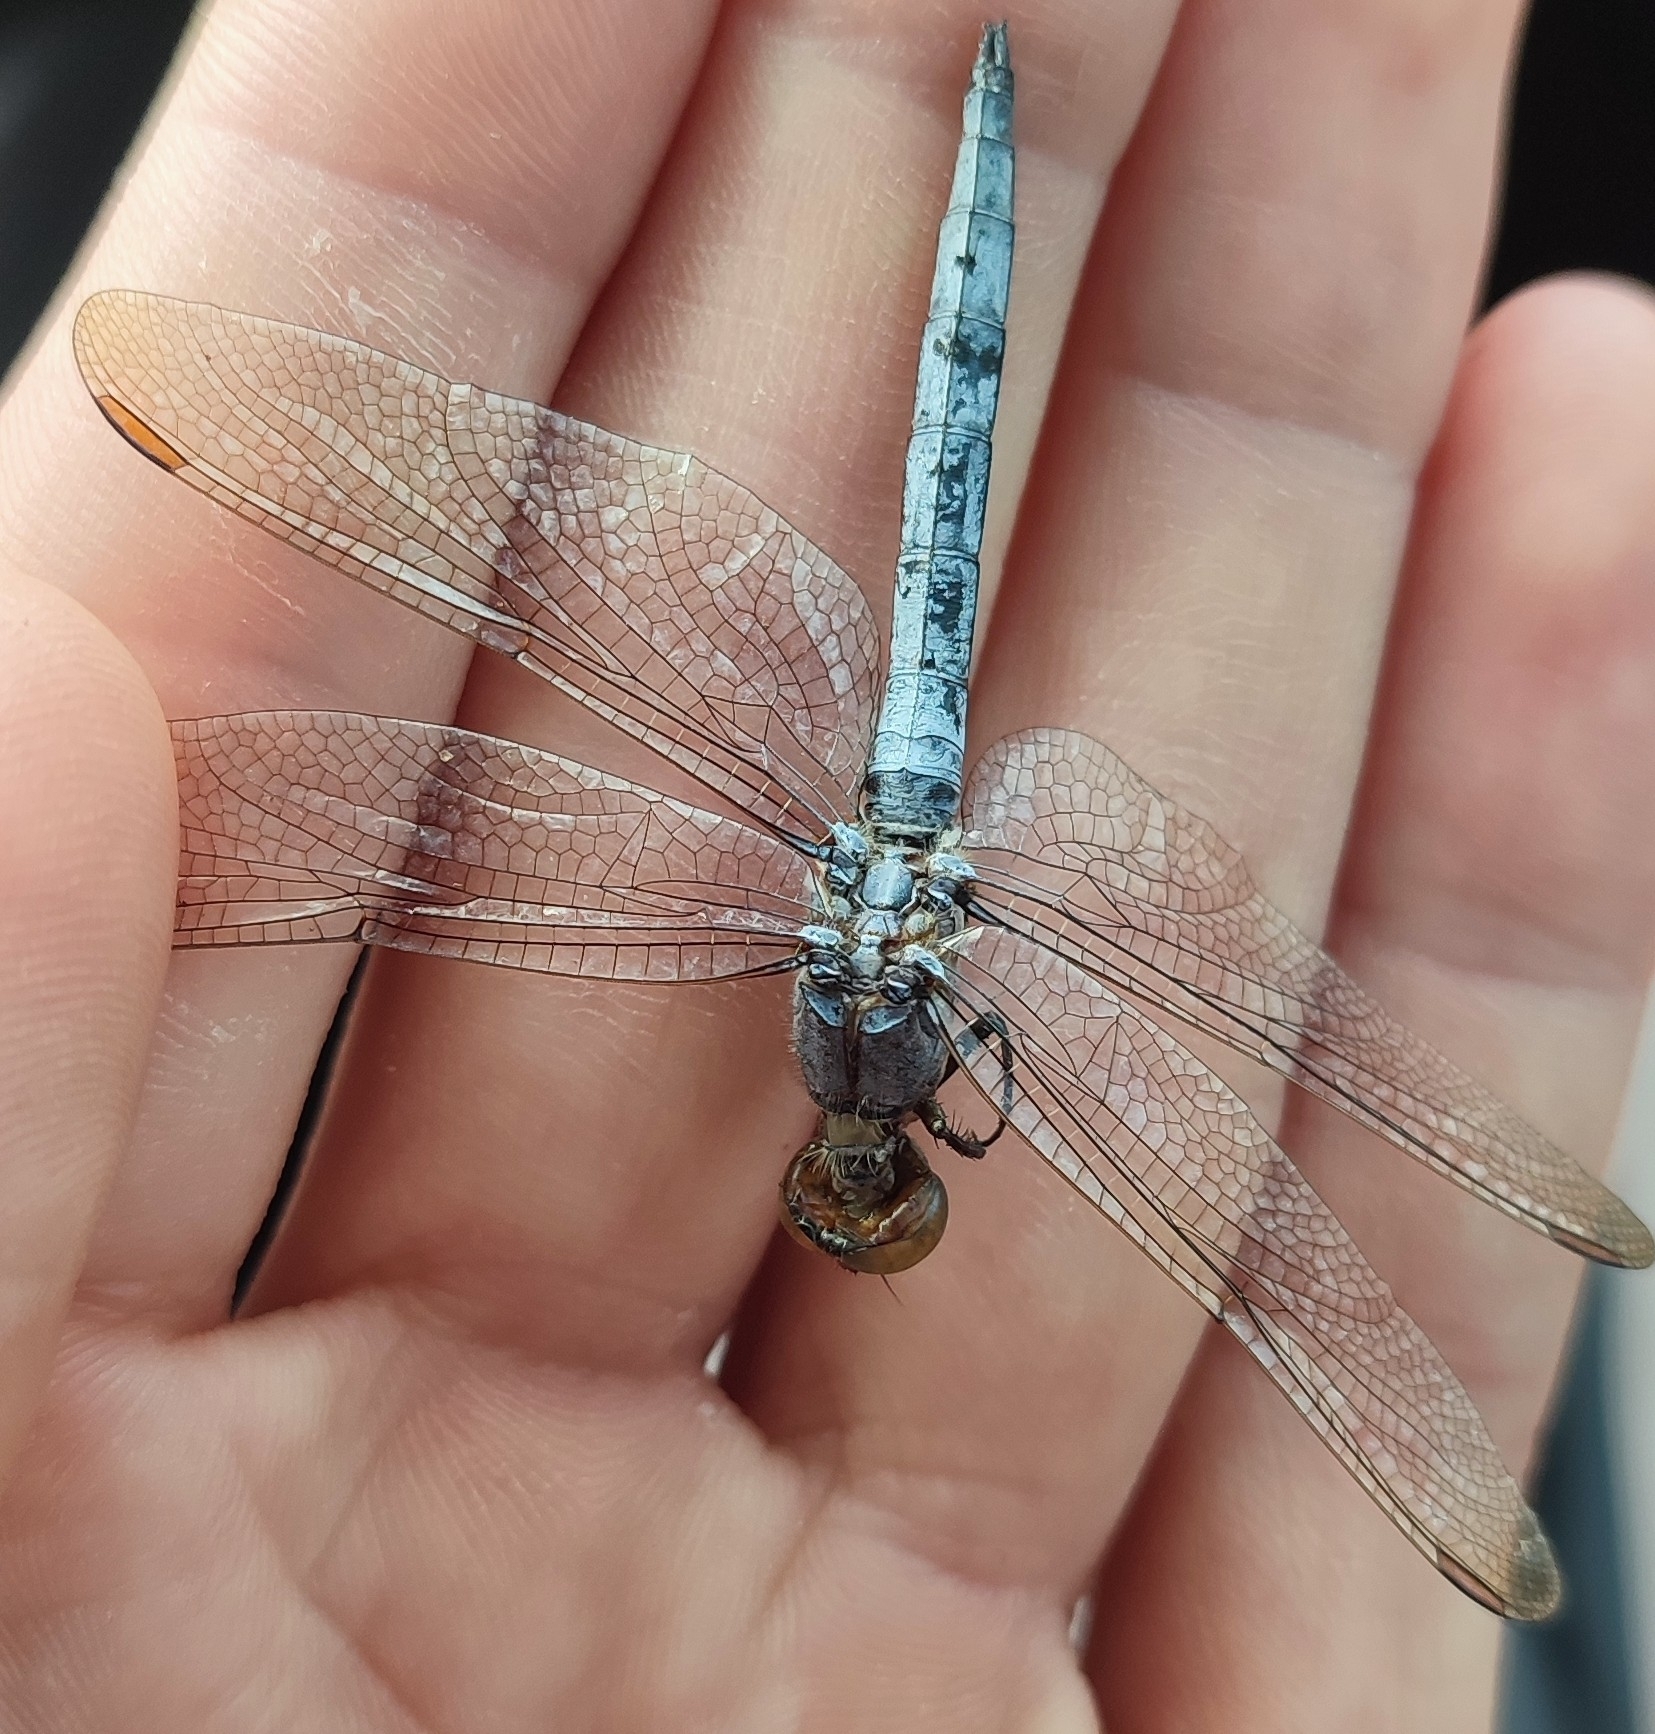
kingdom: Animalia
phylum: Arthropoda
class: Insecta
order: Odonata
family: Libellulidae
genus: Orthetrum
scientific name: Orthetrum coerulescens
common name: Keeled skimmer
